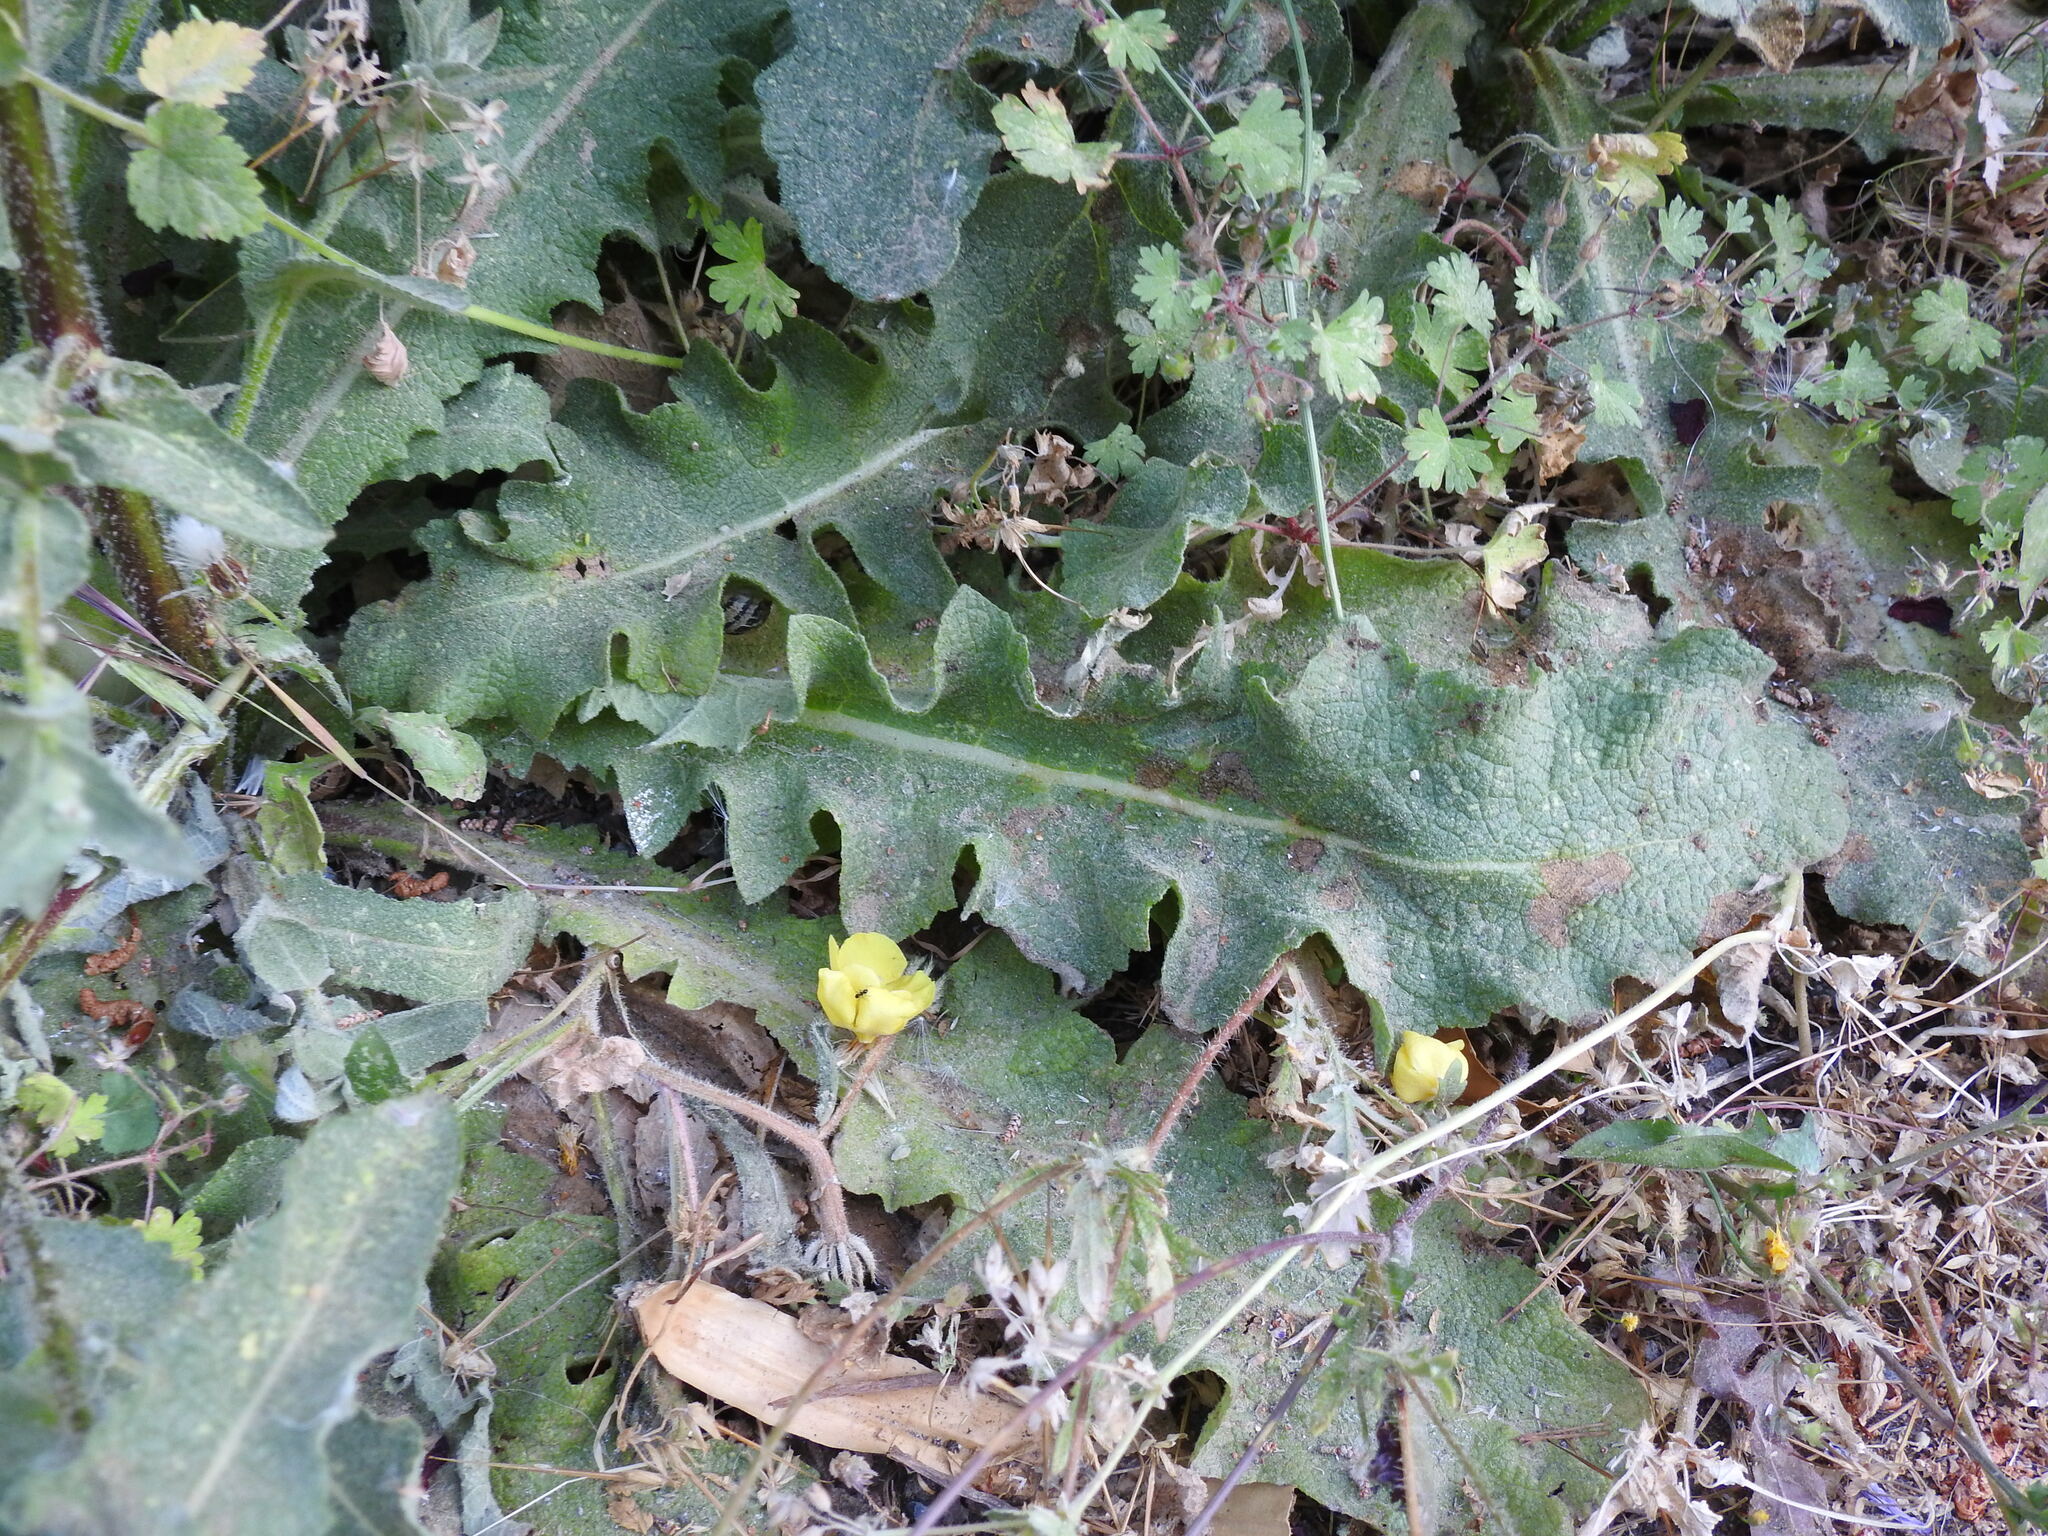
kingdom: Plantae
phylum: Tracheophyta
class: Magnoliopsida
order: Lamiales
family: Scrophulariaceae
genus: Verbascum
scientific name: Verbascum sinuatum
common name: Wavyleaf mullein
